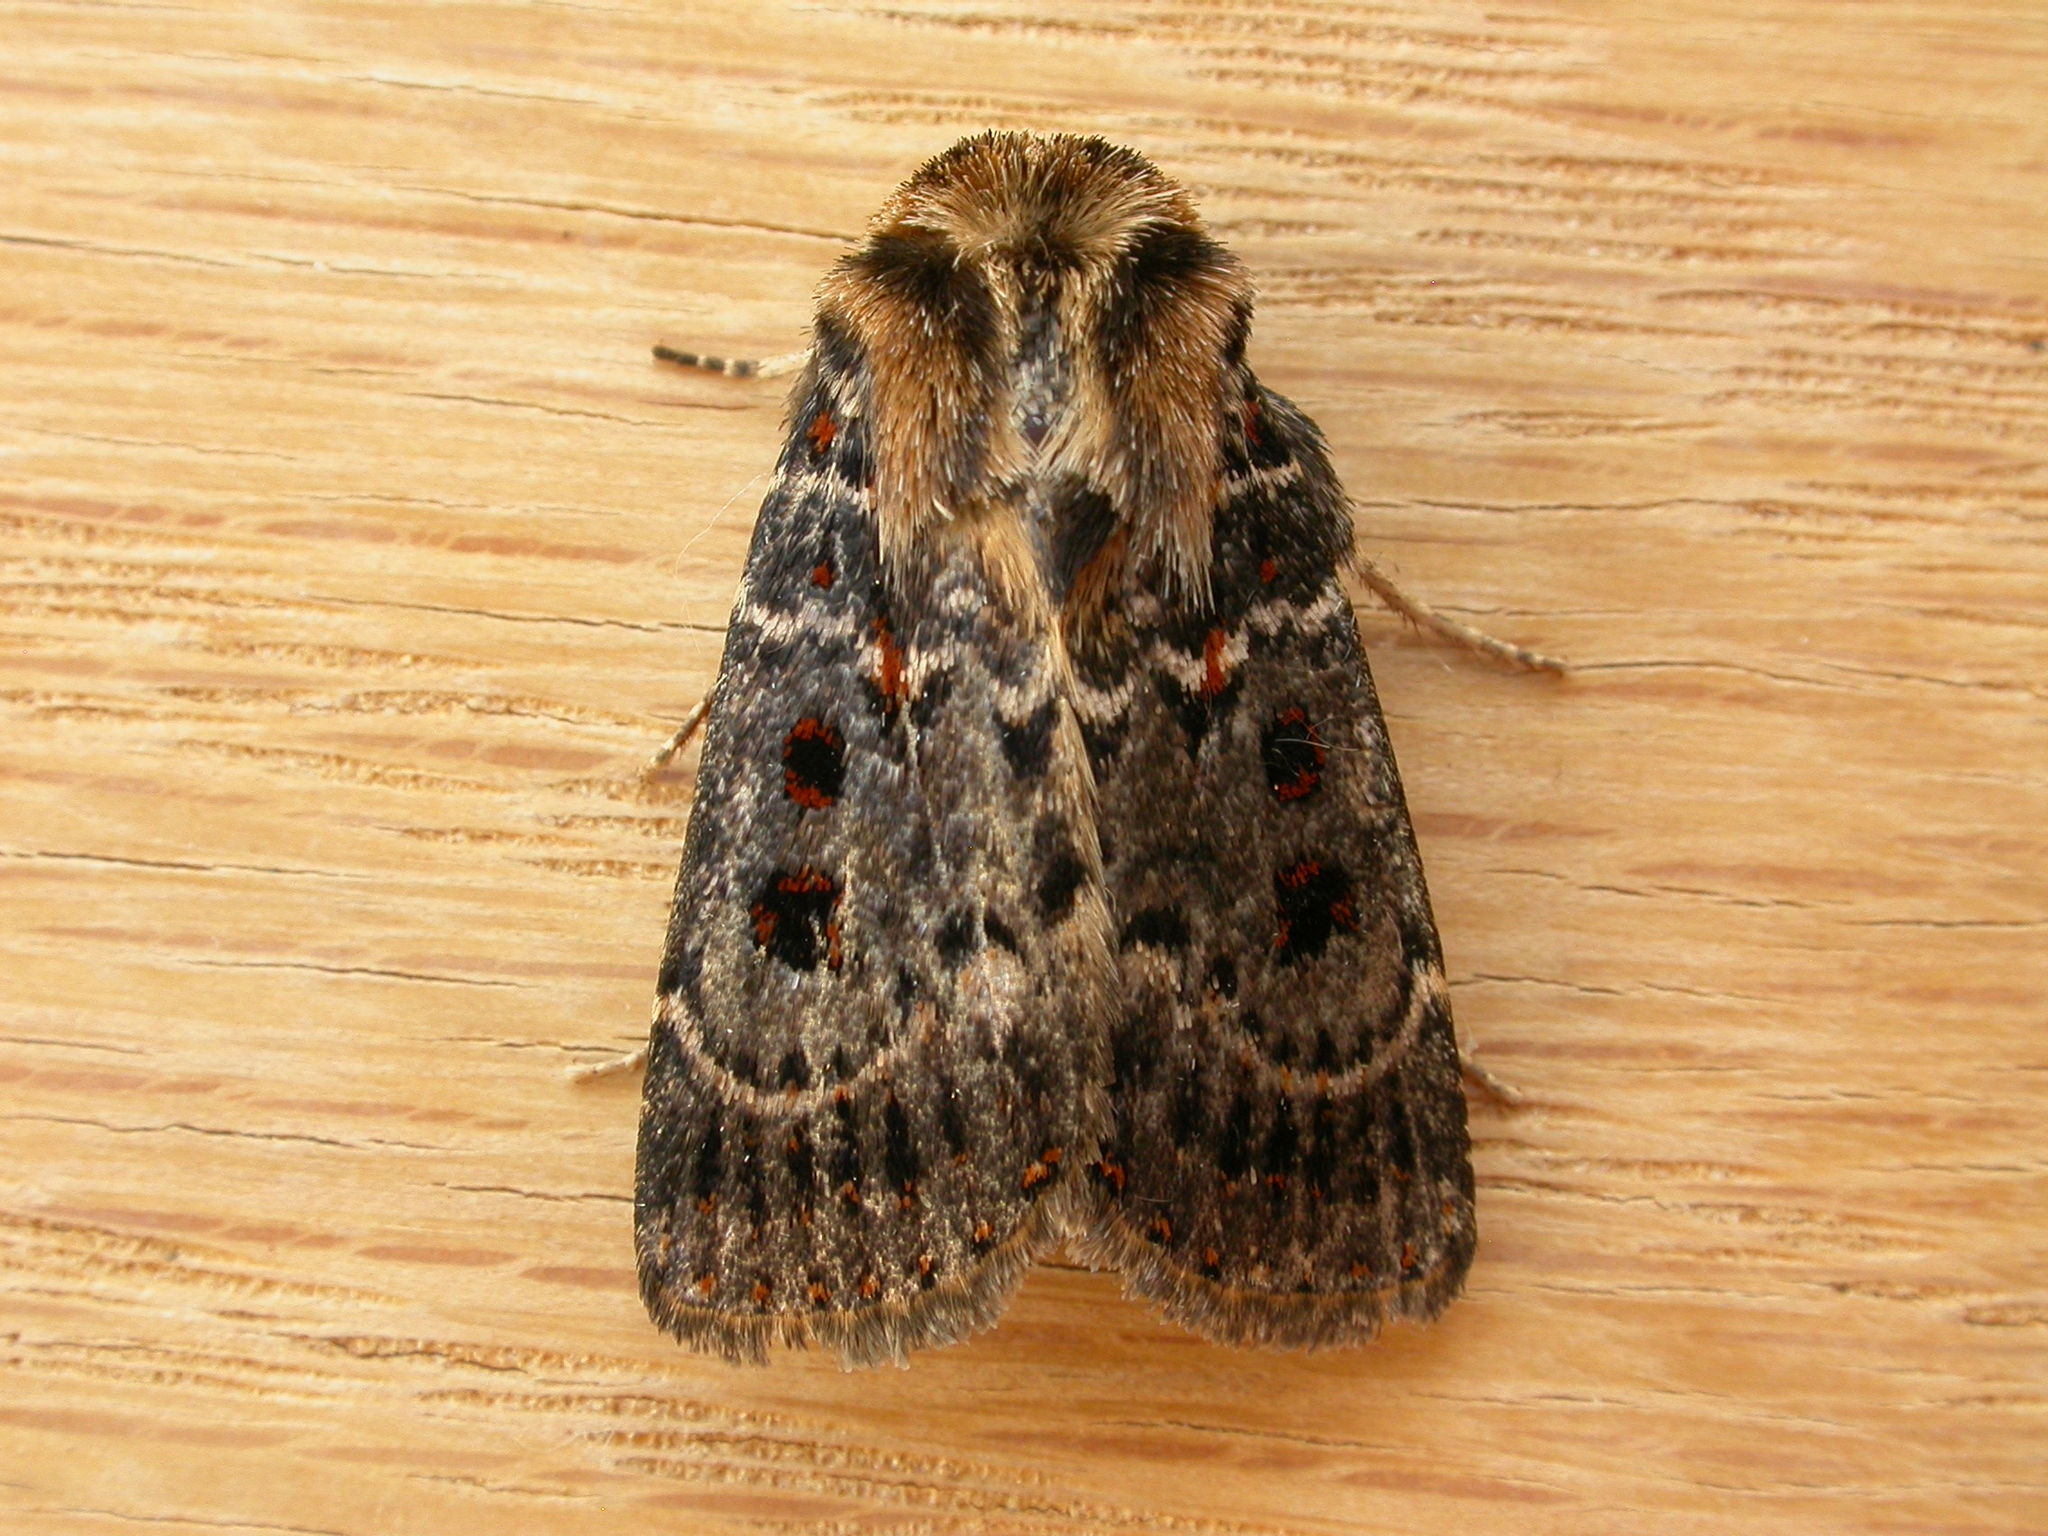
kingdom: Animalia
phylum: Arthropoda
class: Insecta
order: Lepidoptera
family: Noctuidae
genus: Proteuxoa
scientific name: Proteuxoa sanguinipuncta
